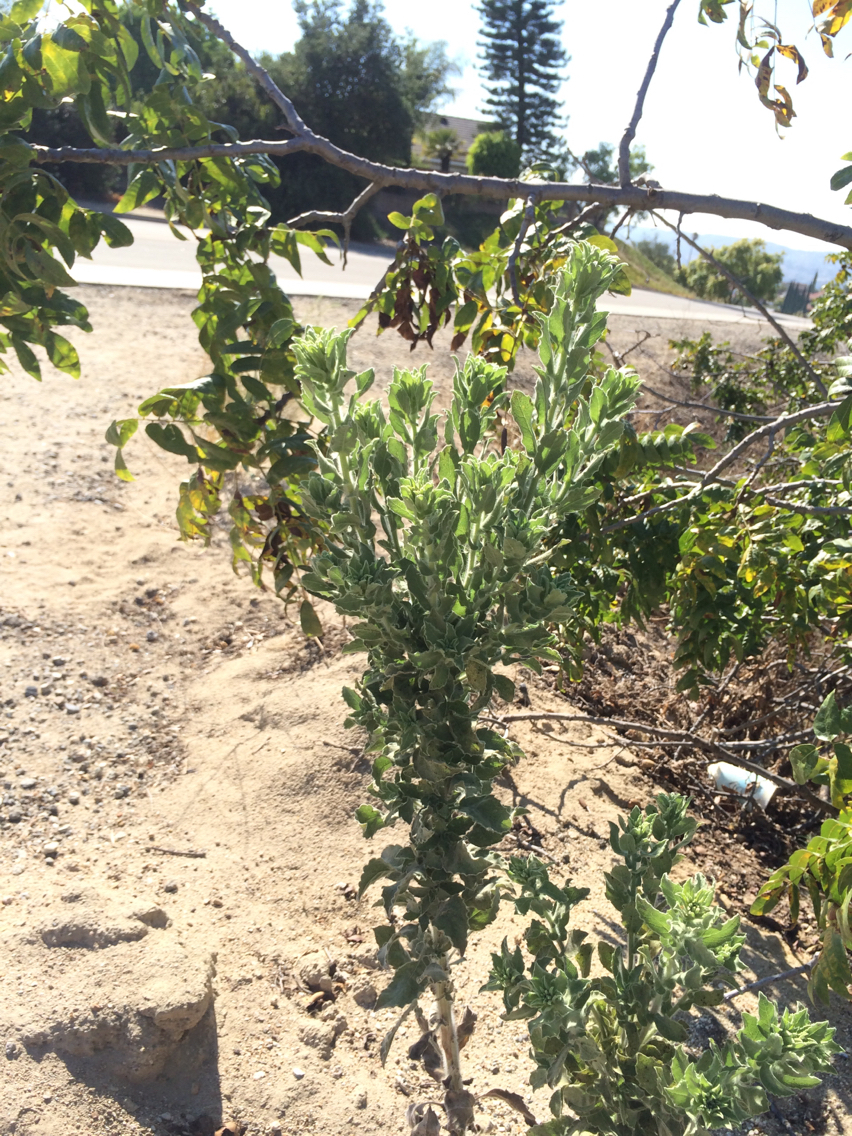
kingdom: Plantae
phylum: Tracheophyta
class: Magnoliopsida
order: Asterales
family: Asteraceae
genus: Heterotheca
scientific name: Heterotheca grandiflora
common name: Telegraphweed
